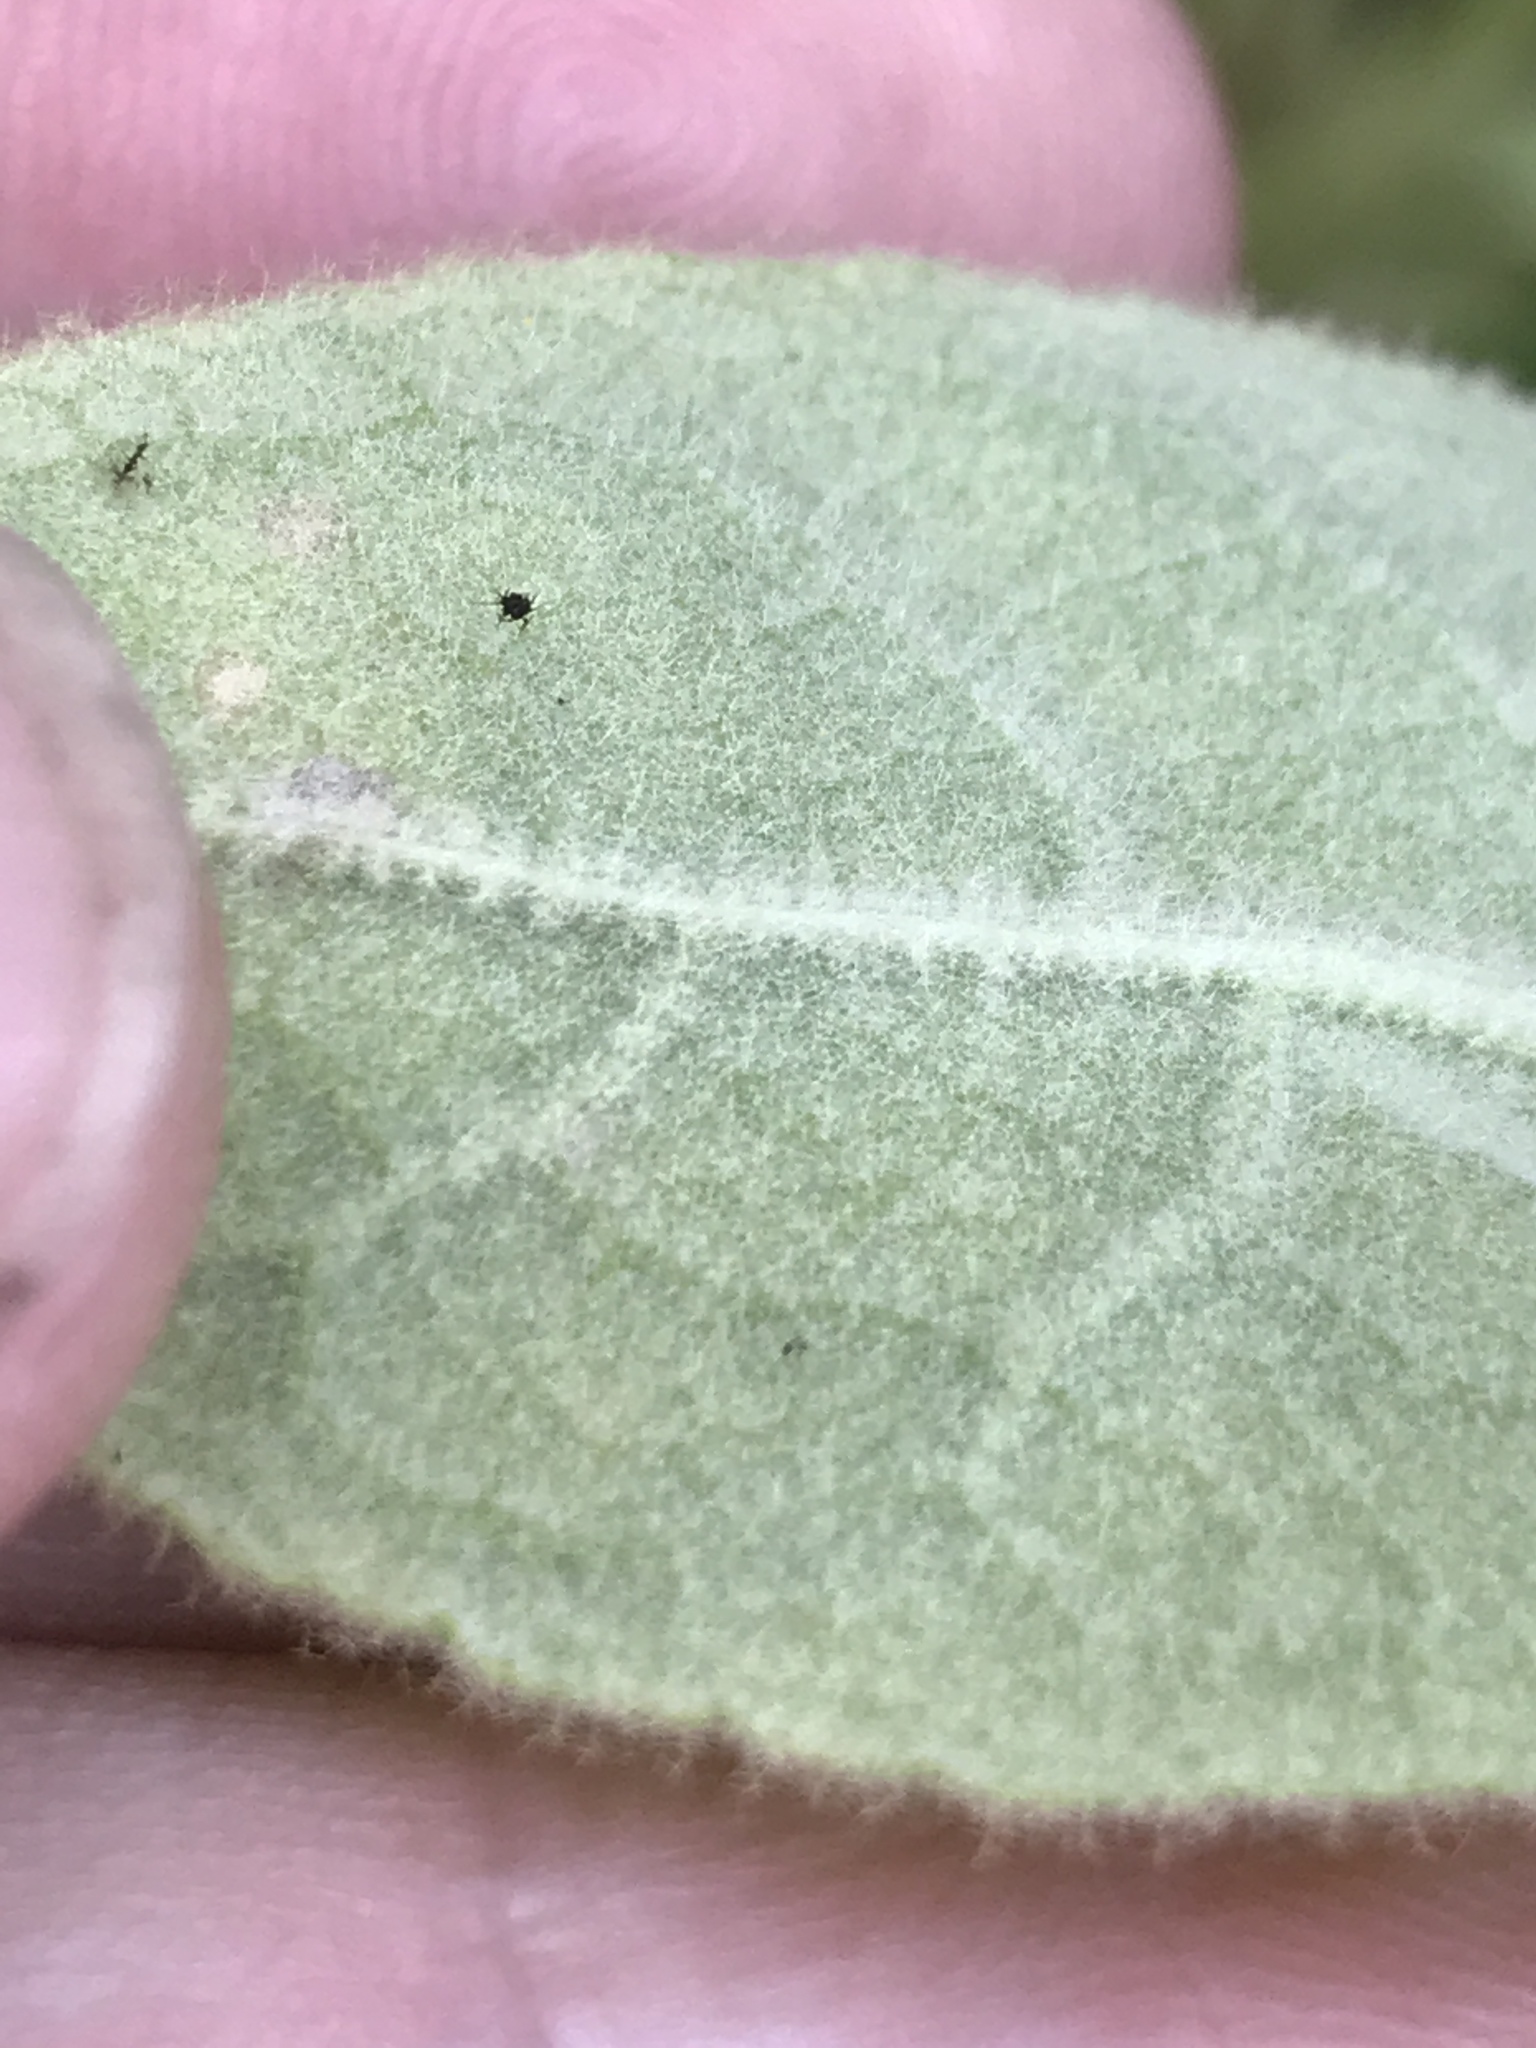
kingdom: Plantae
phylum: Tracheophyta
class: Magnoliopsida
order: Lamiales
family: Scrophulariaceae
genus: Verbascum
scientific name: Verbascum thapsus
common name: Common mullein
